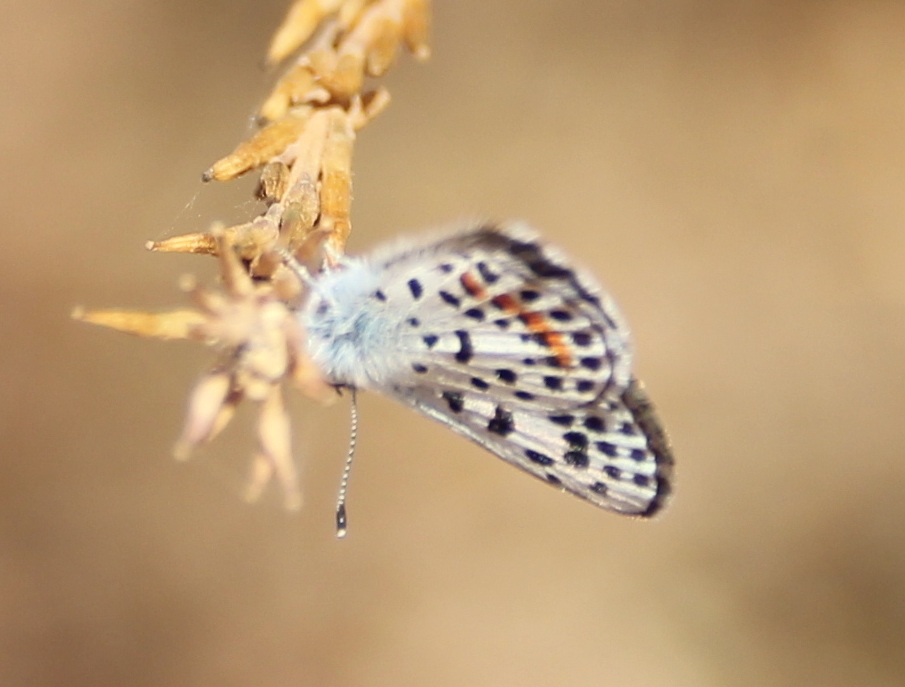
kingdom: Animalia
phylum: Arthropoda
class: Insecta
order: Lepidoptera
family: Lycaenidae
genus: Philotes
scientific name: Philotes bernardino
